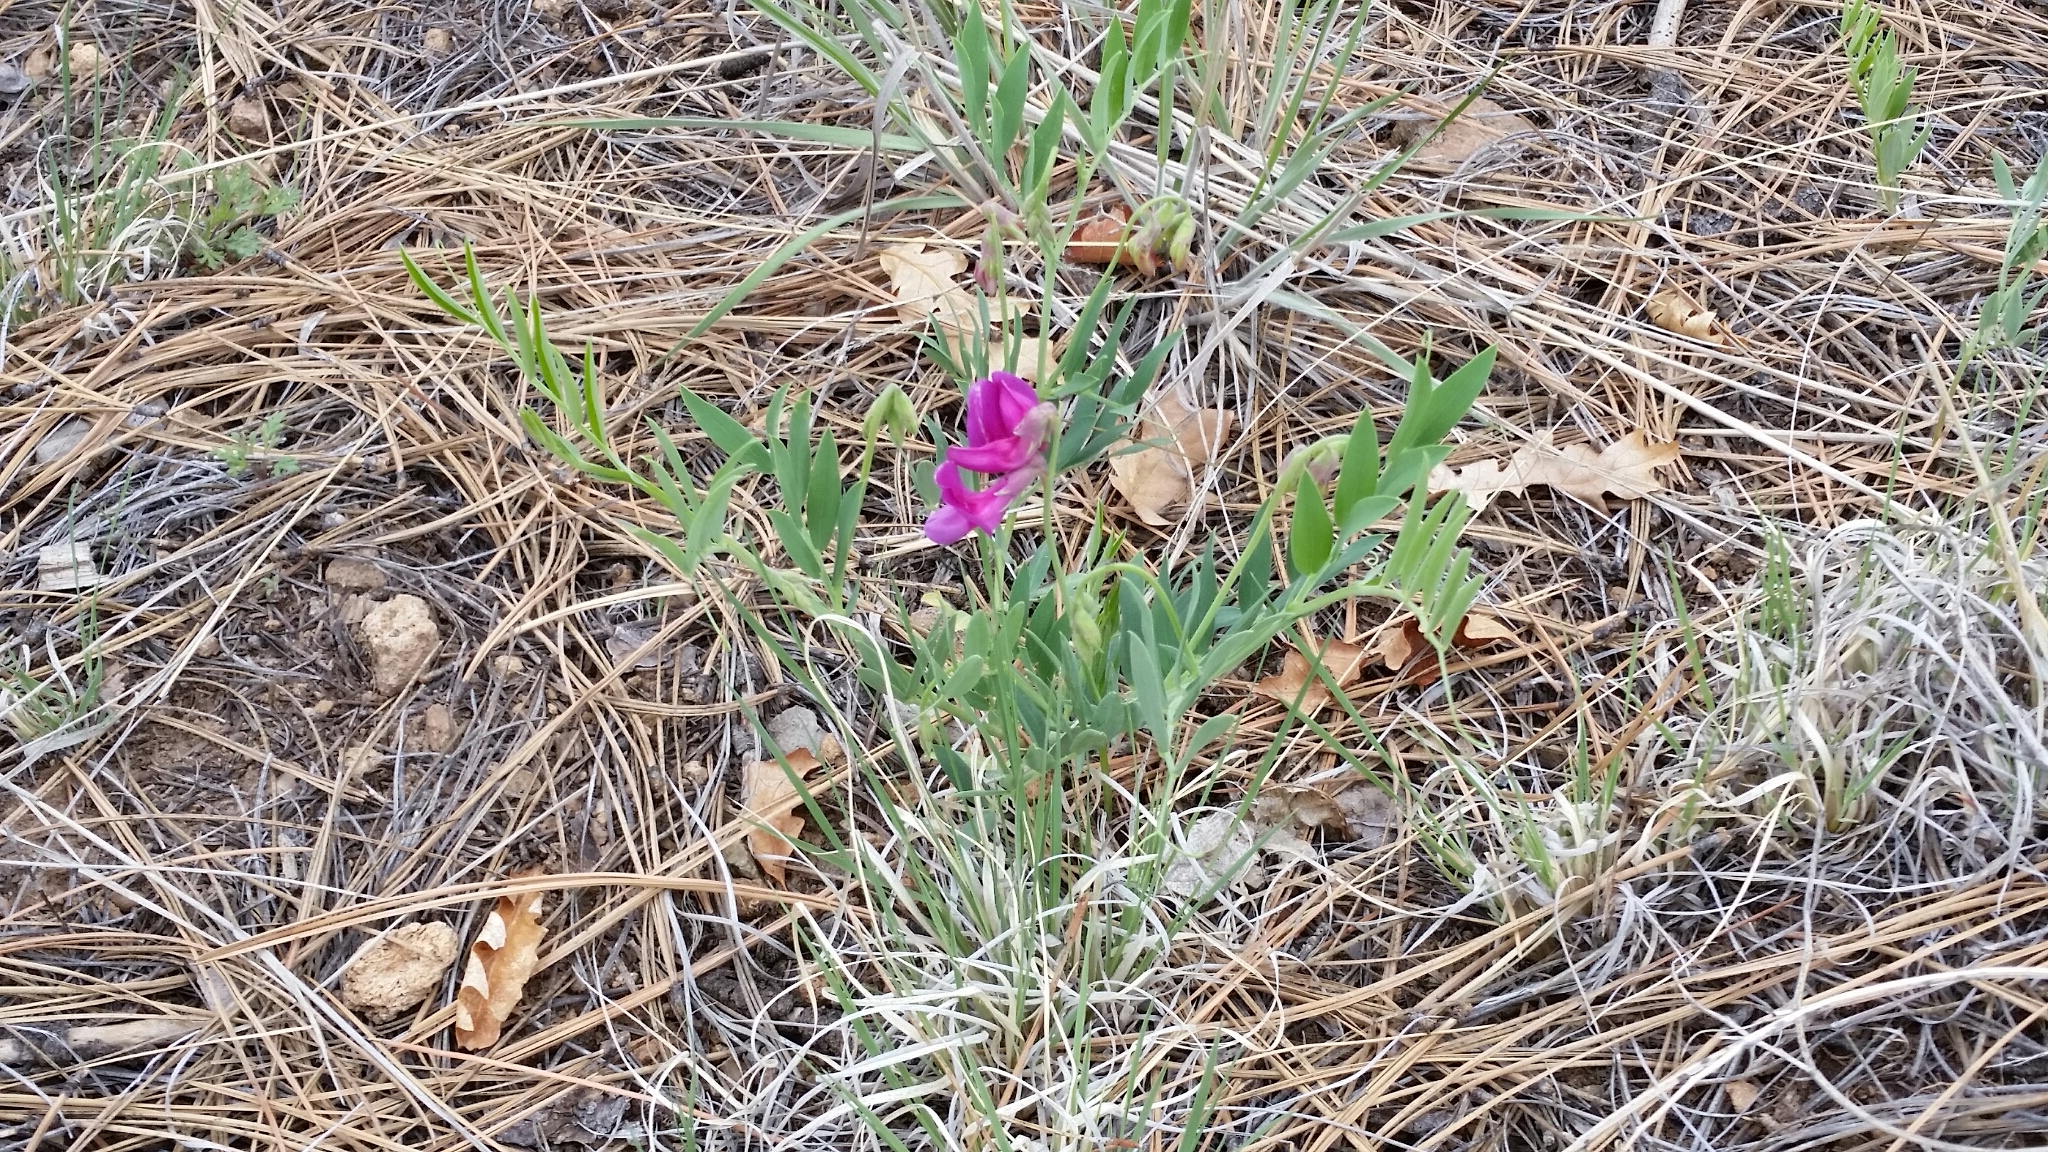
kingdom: Plantae
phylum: Tracheophyta
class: Magnoliopsida
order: Fabales
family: Fabaceae
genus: Lathyrus
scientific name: Lathyrus eucosmus
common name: Semmly vetchling
